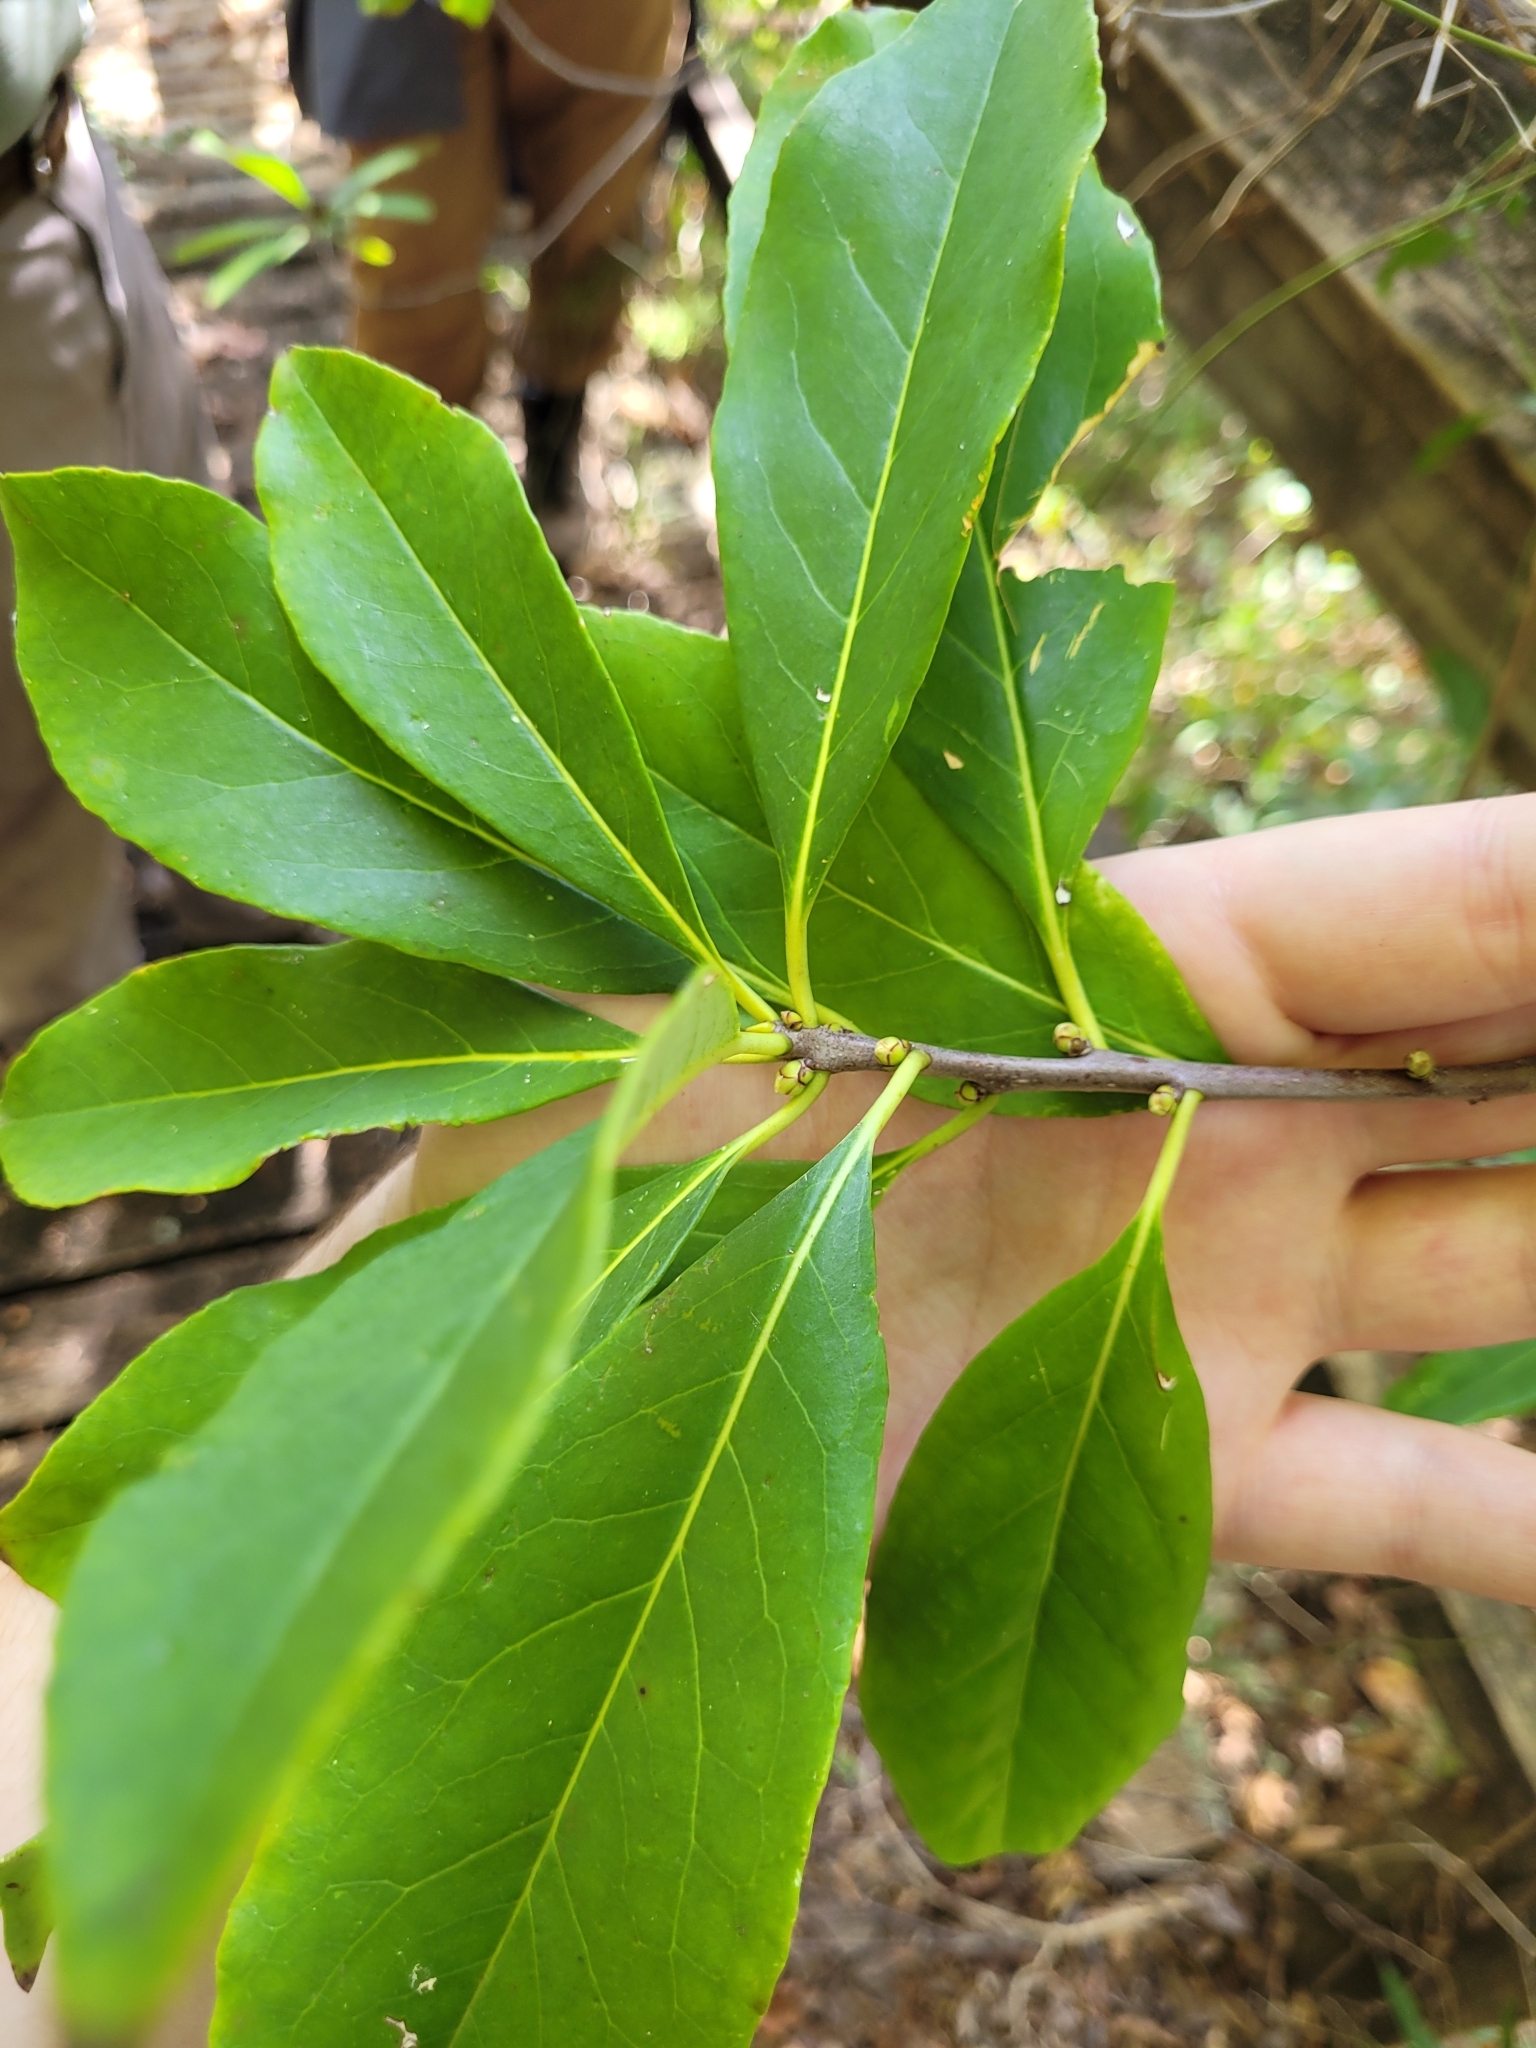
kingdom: Plantae
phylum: Tracheophyta
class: Magnoliopsida
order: Ericales
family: Symplocaceae
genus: Symplocos
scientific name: Symplocos tinctoria
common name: Horse-sugar
